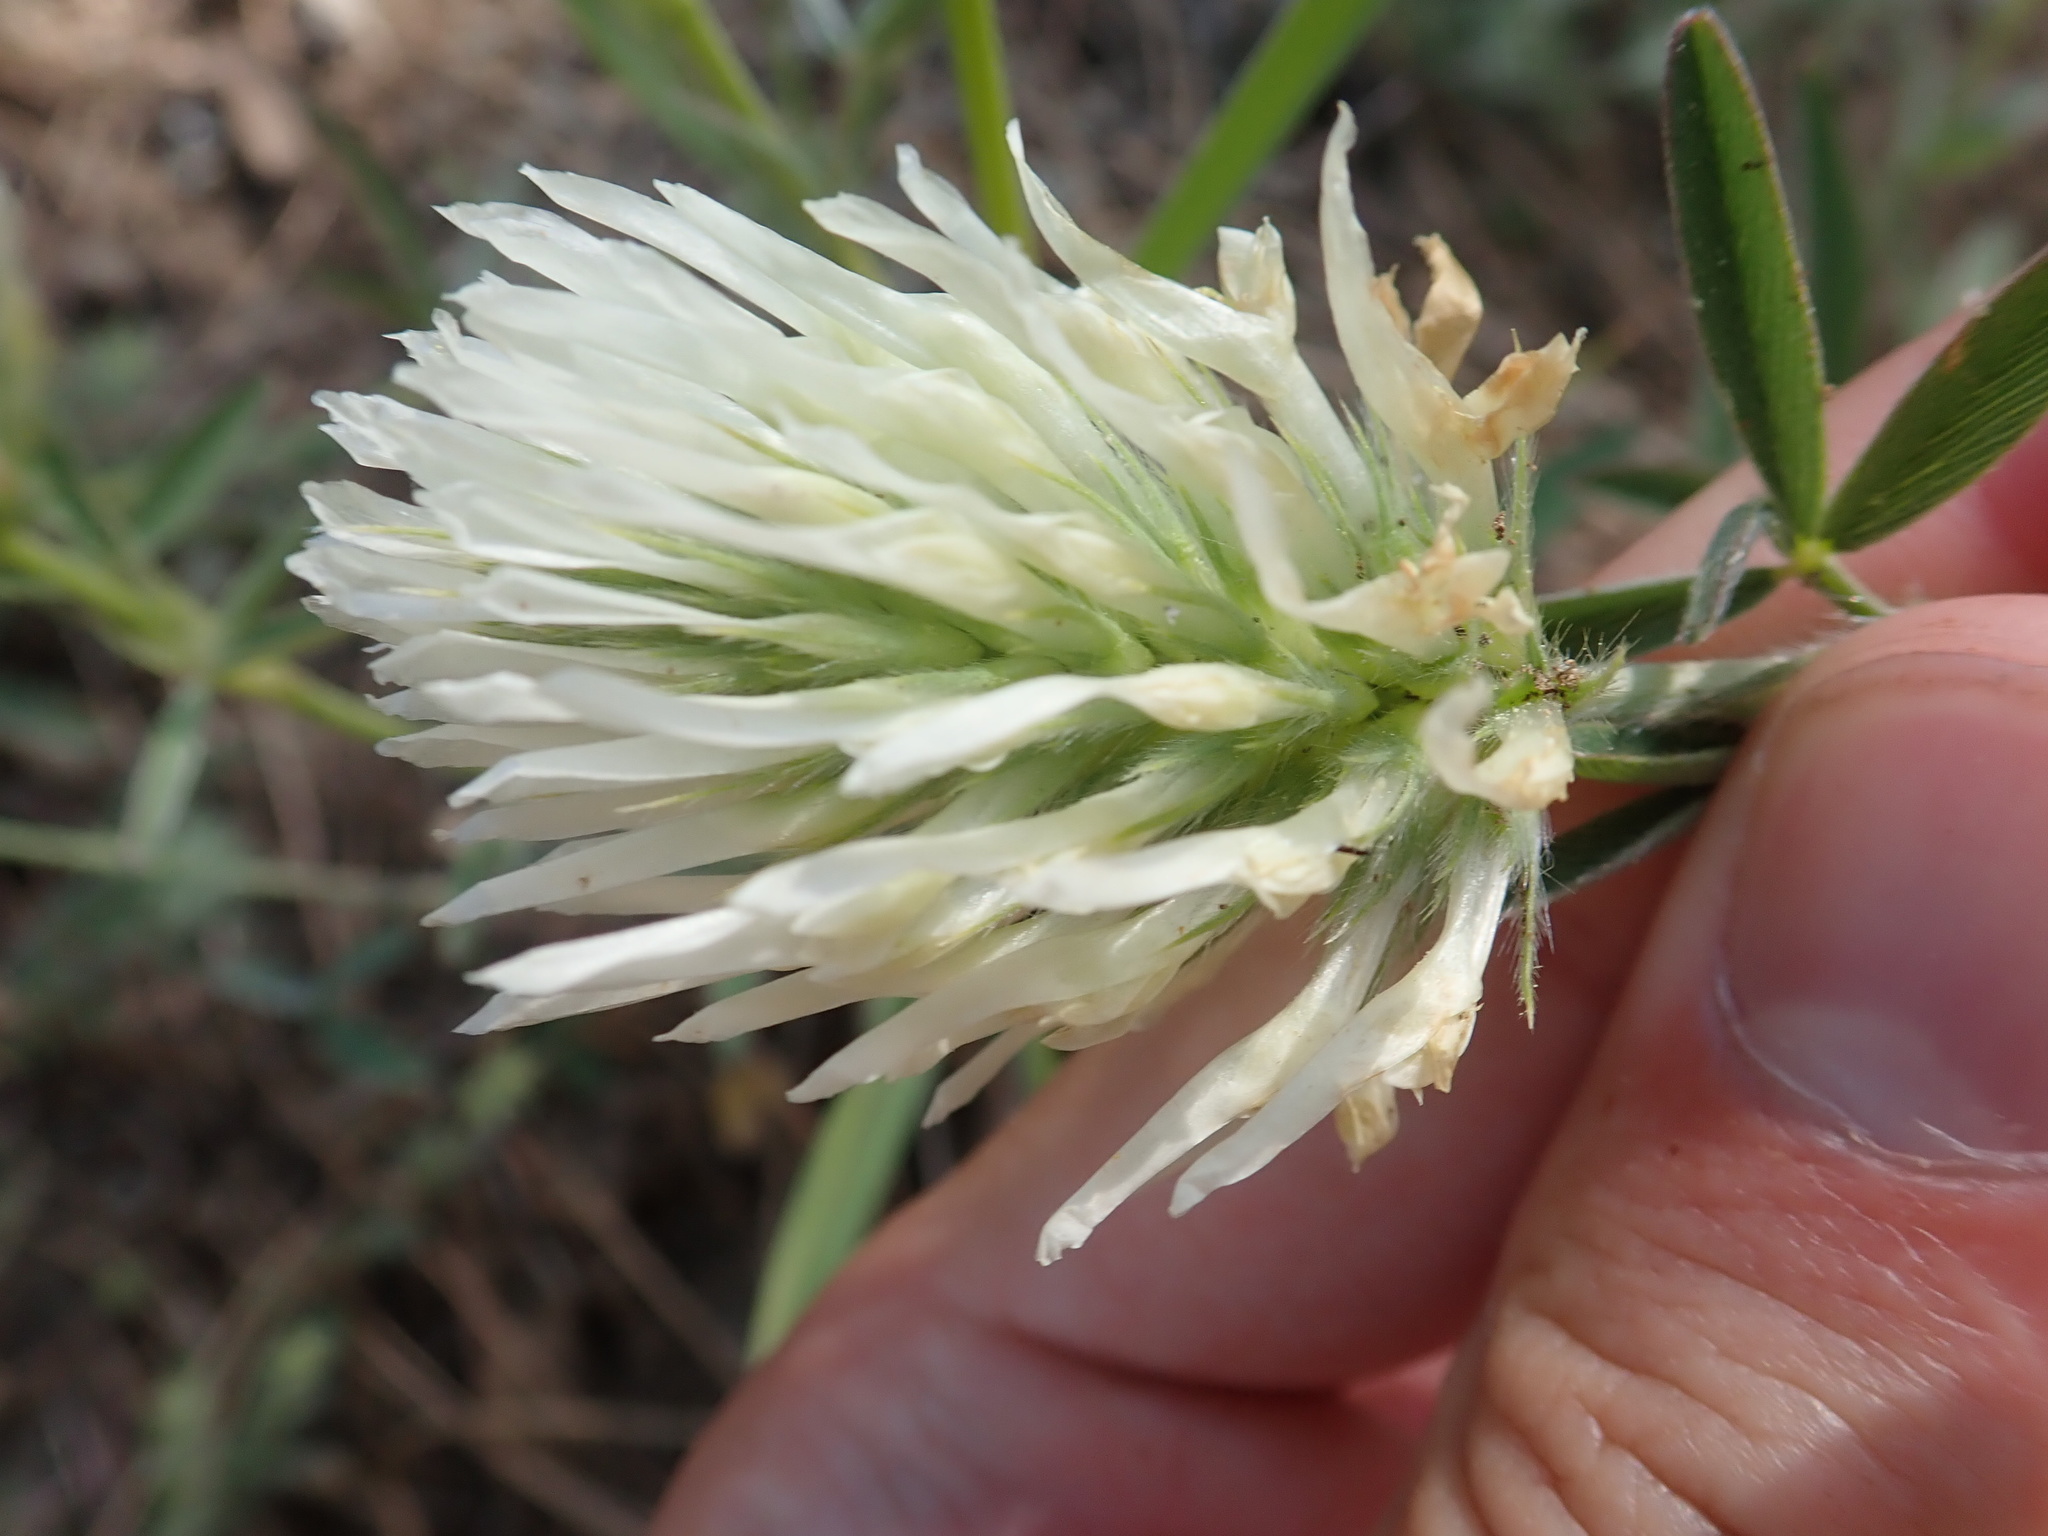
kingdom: Plantae
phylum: Tracheophyta
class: Magnoliopsida
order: Fabales
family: Fabaceae
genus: Trifolium
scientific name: Trifolium pannonicum
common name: Hungarian clover
